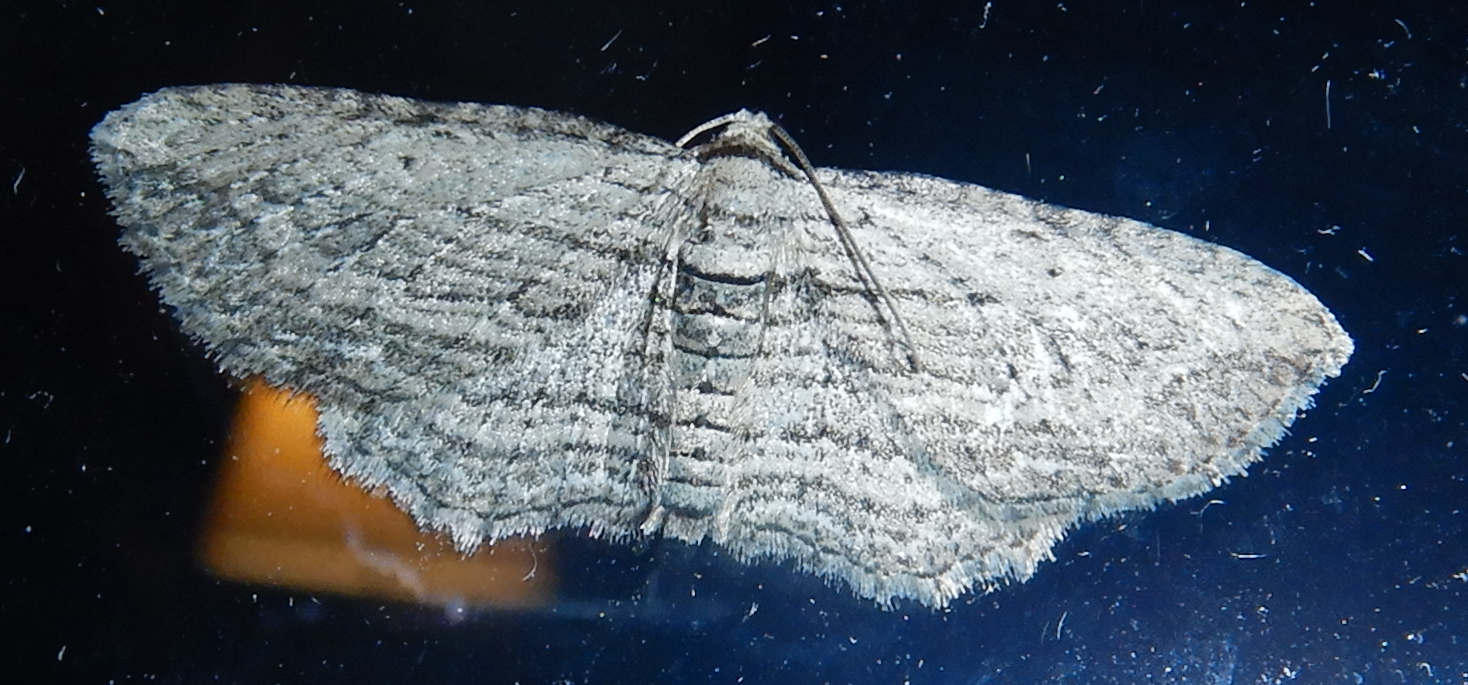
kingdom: Animalia
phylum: Arthropoda
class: Insecta
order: Lepidoptera
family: Geometridae
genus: Horisme
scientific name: Horisme intestinata
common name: Brown bark carpet
